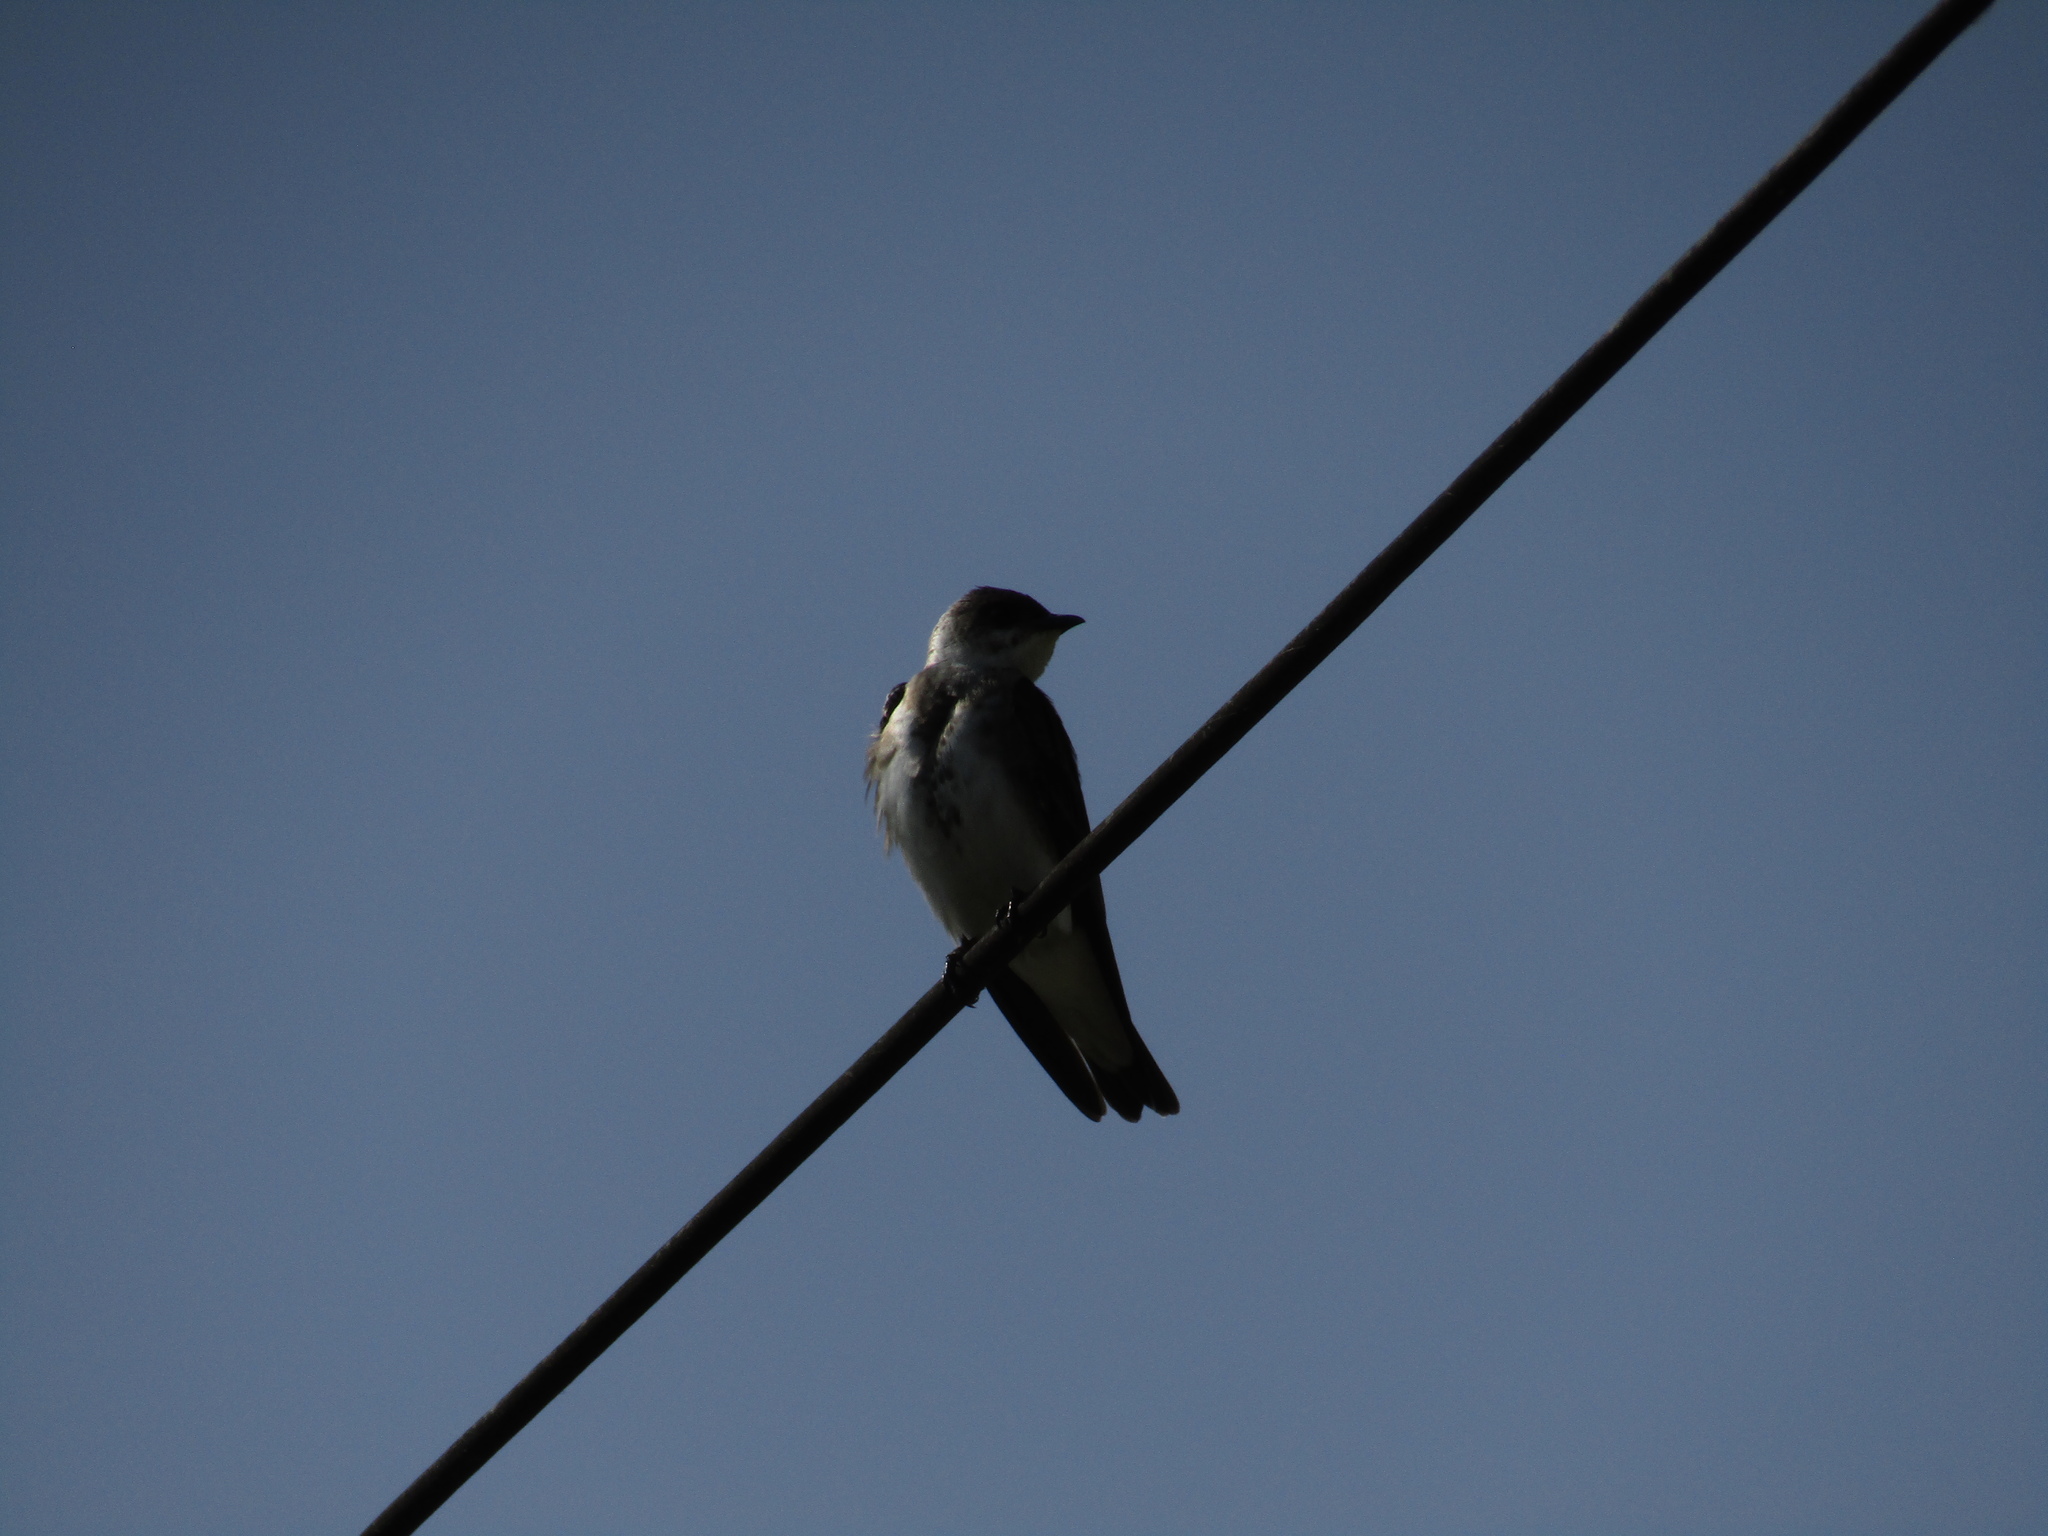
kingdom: Animalia
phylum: Chordata
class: Aves
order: Passeriformes
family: Hirundinidae
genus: Progne
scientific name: Progne tapera
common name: Brown-chested martin
